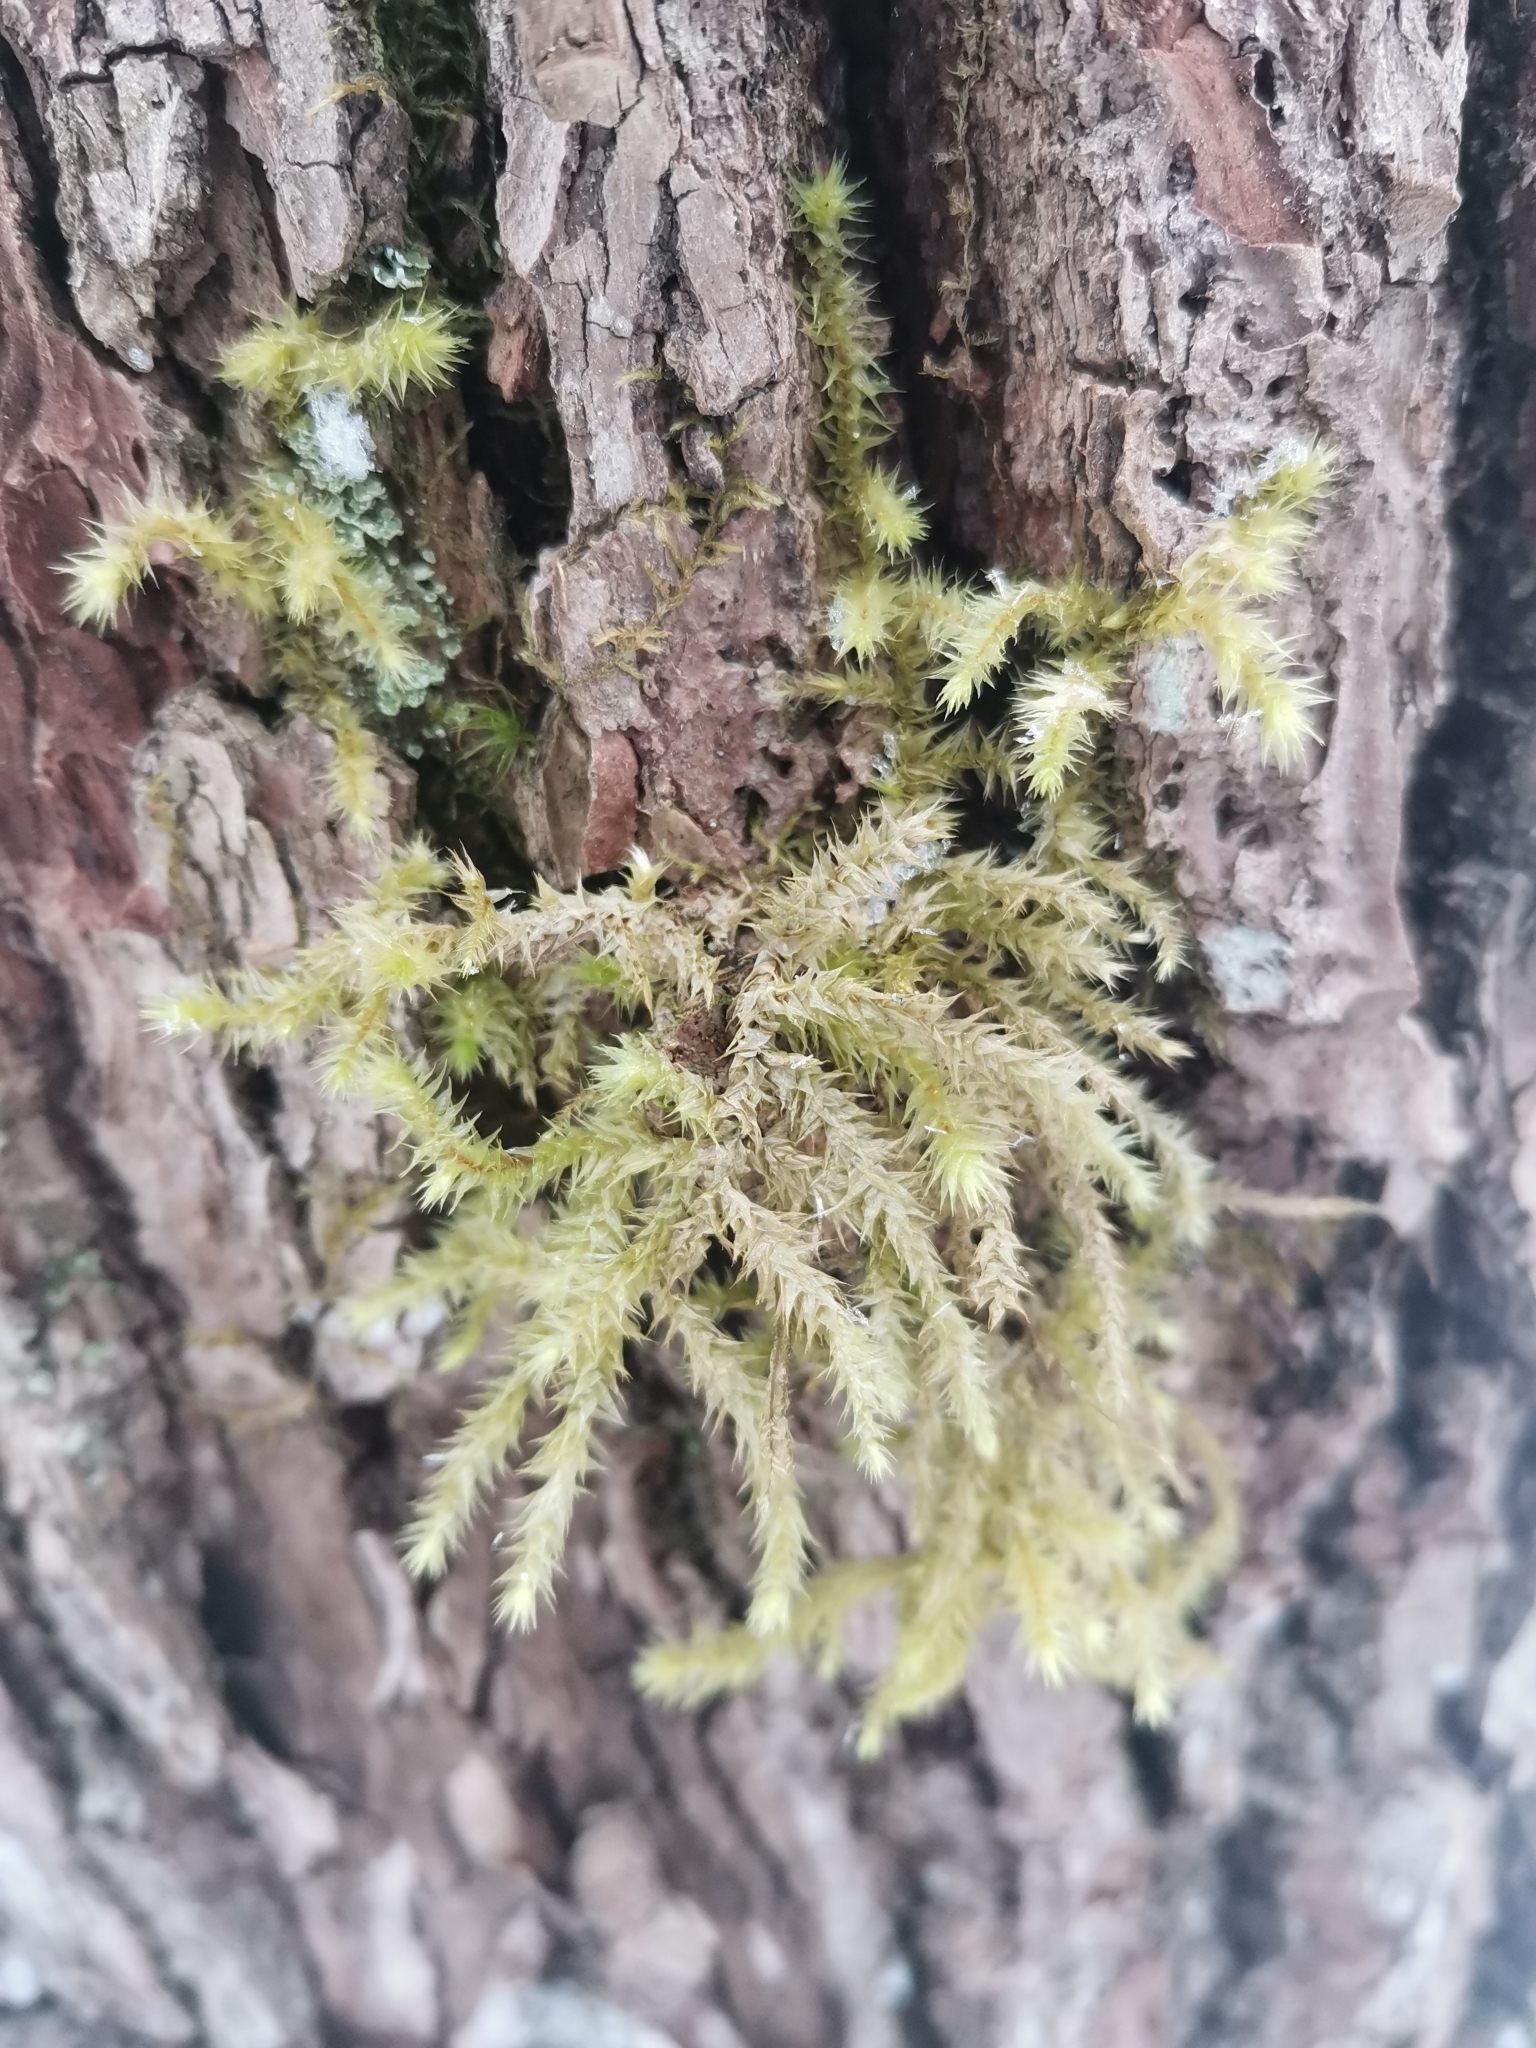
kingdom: Plantae
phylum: Bryophyta
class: Bryopsida
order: Hypnales
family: Hylocomiaceae
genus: Hylocomiadelphus
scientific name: Hylocomiadelphus triquetrus
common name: Rough goose neck moss
